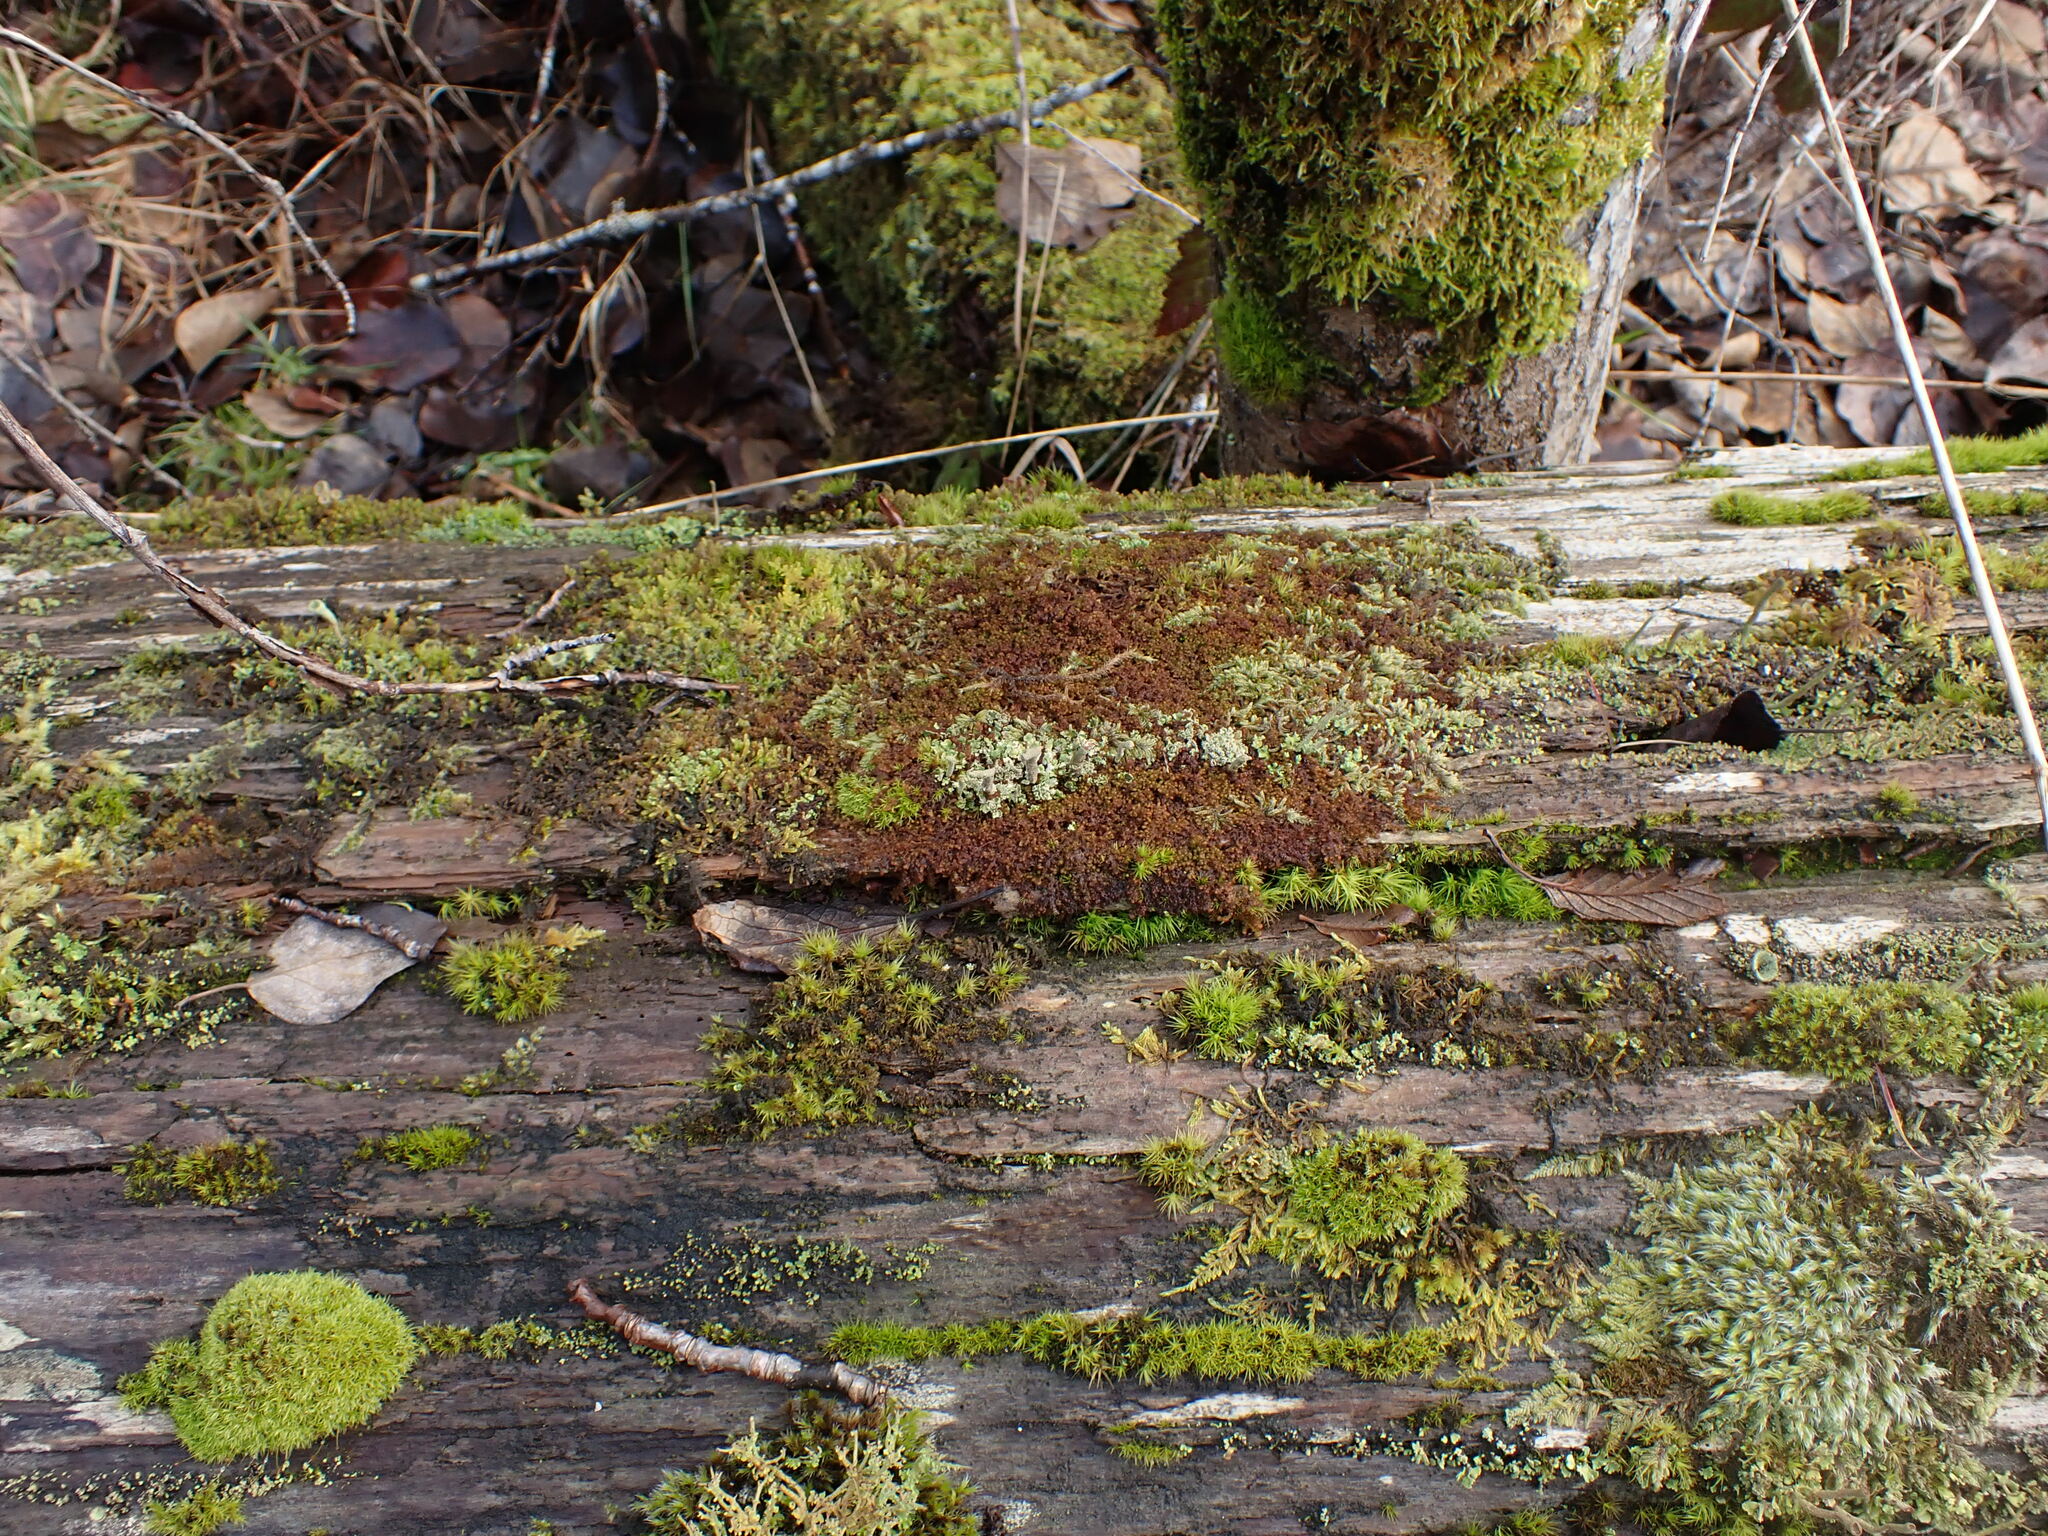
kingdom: Plantae
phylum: Marchantiophyta
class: Jungermanniopsida
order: Jungermanniales
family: Scapaniaceae
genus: Scapania
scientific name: Scapania umbrosa
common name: Shady earwort
